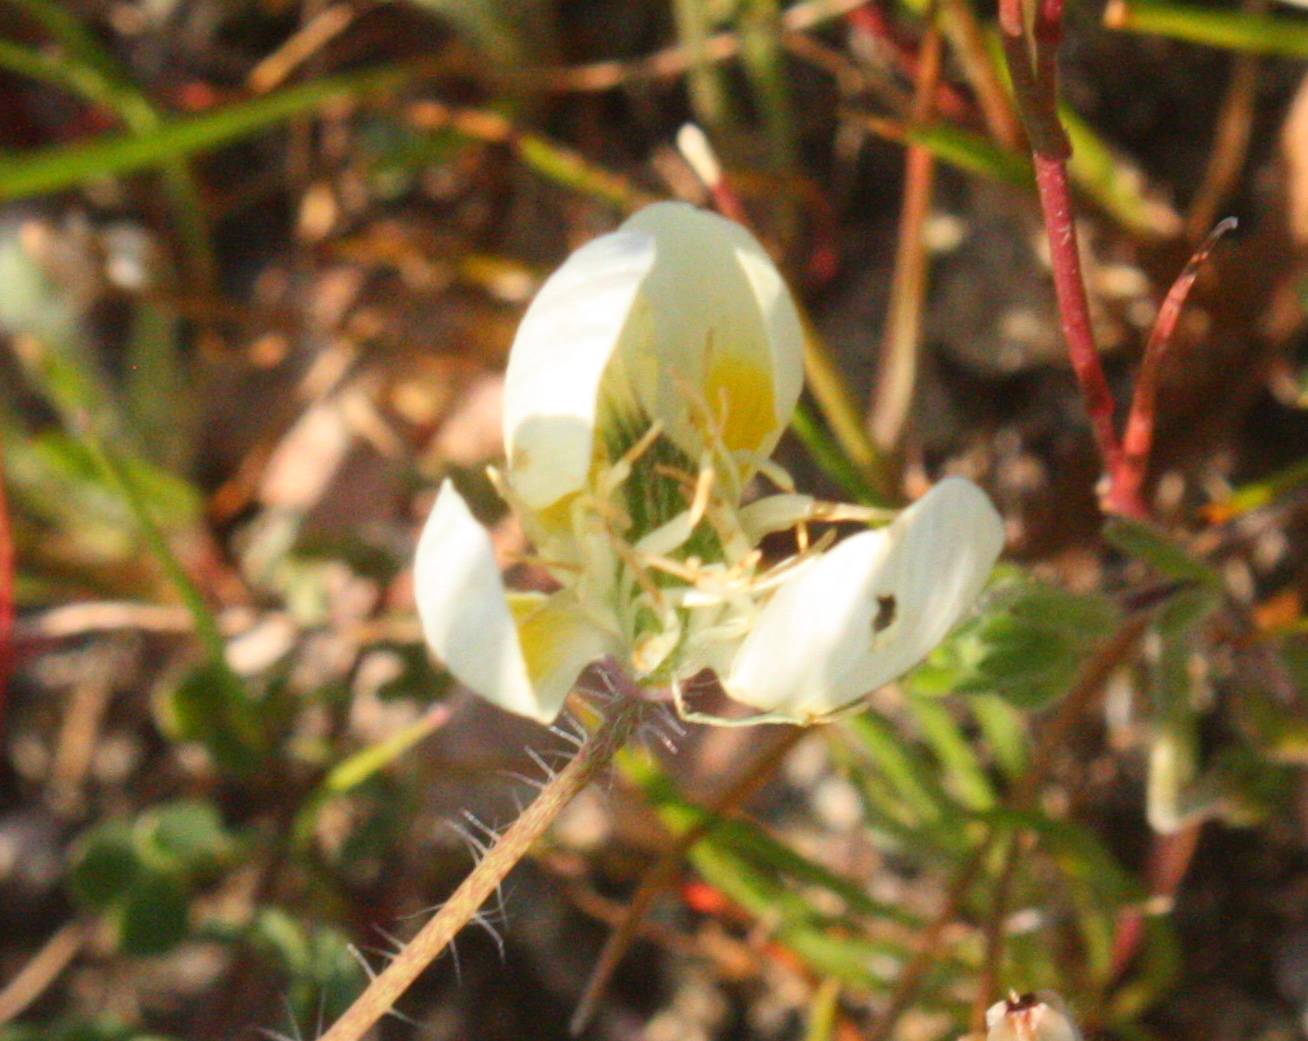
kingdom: Plantae
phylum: Tracheophyta
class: Magnoliopsida
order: Ranunculales
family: Papaveraceae
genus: Platystemon
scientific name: Platystemon californicus
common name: Cream-cups
